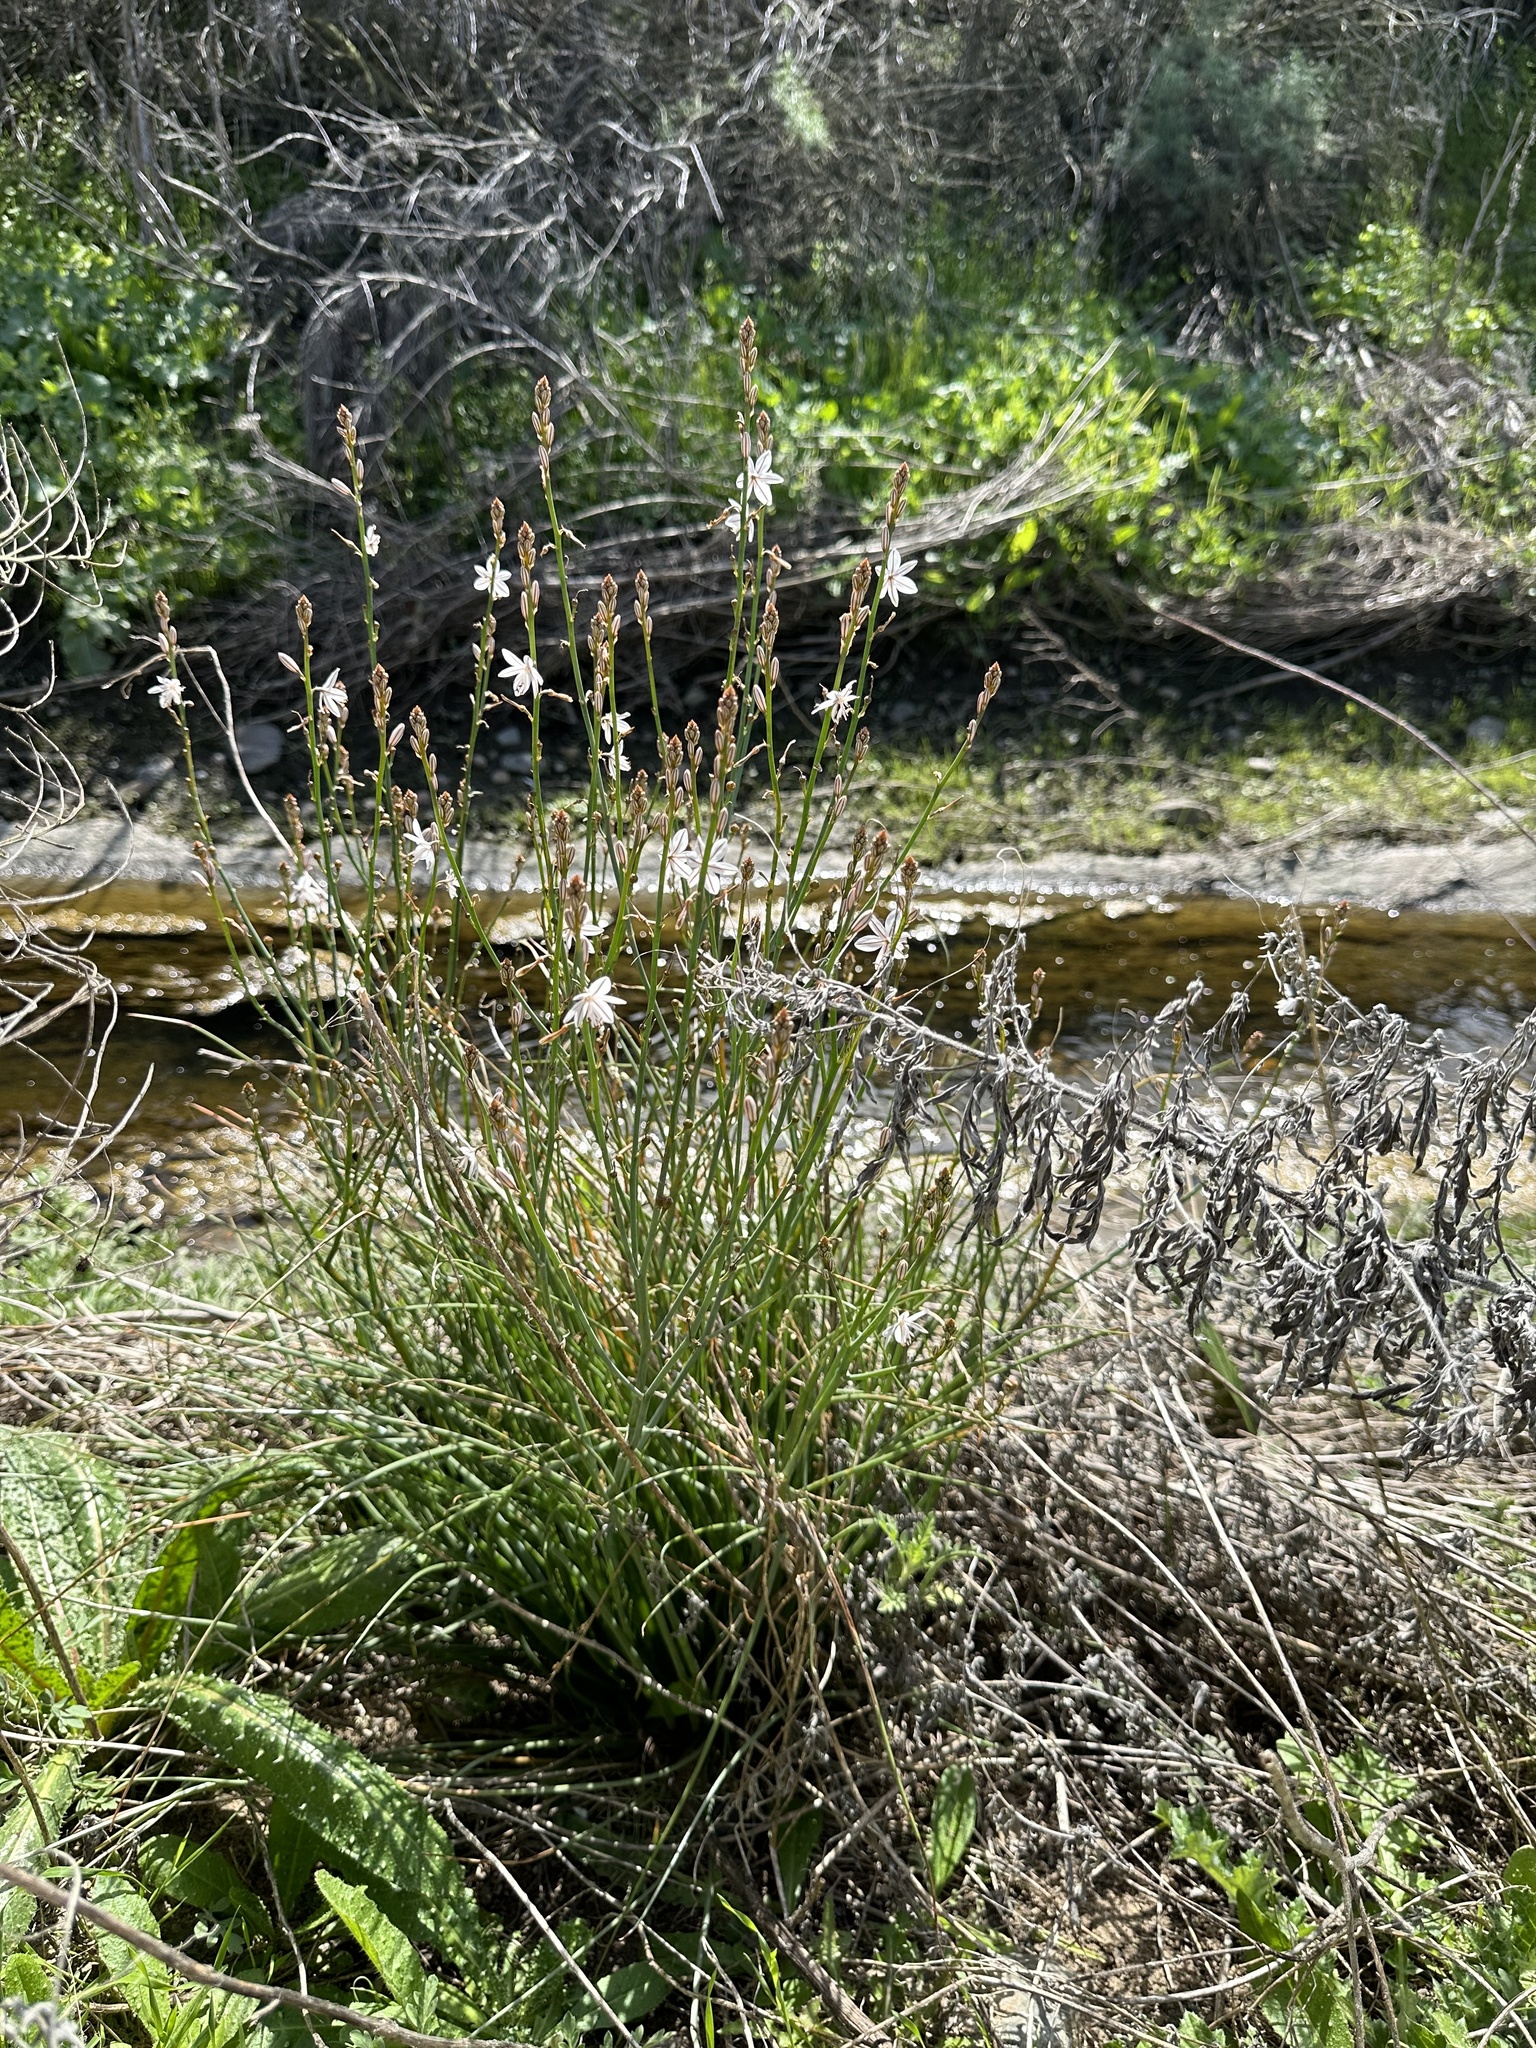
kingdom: Plantae
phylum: Tracheophyta
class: Liliopsida
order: Asparagales
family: Asphodelaceae
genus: Asphodelus
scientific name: Asphodelus fistulosus
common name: Onionweed
